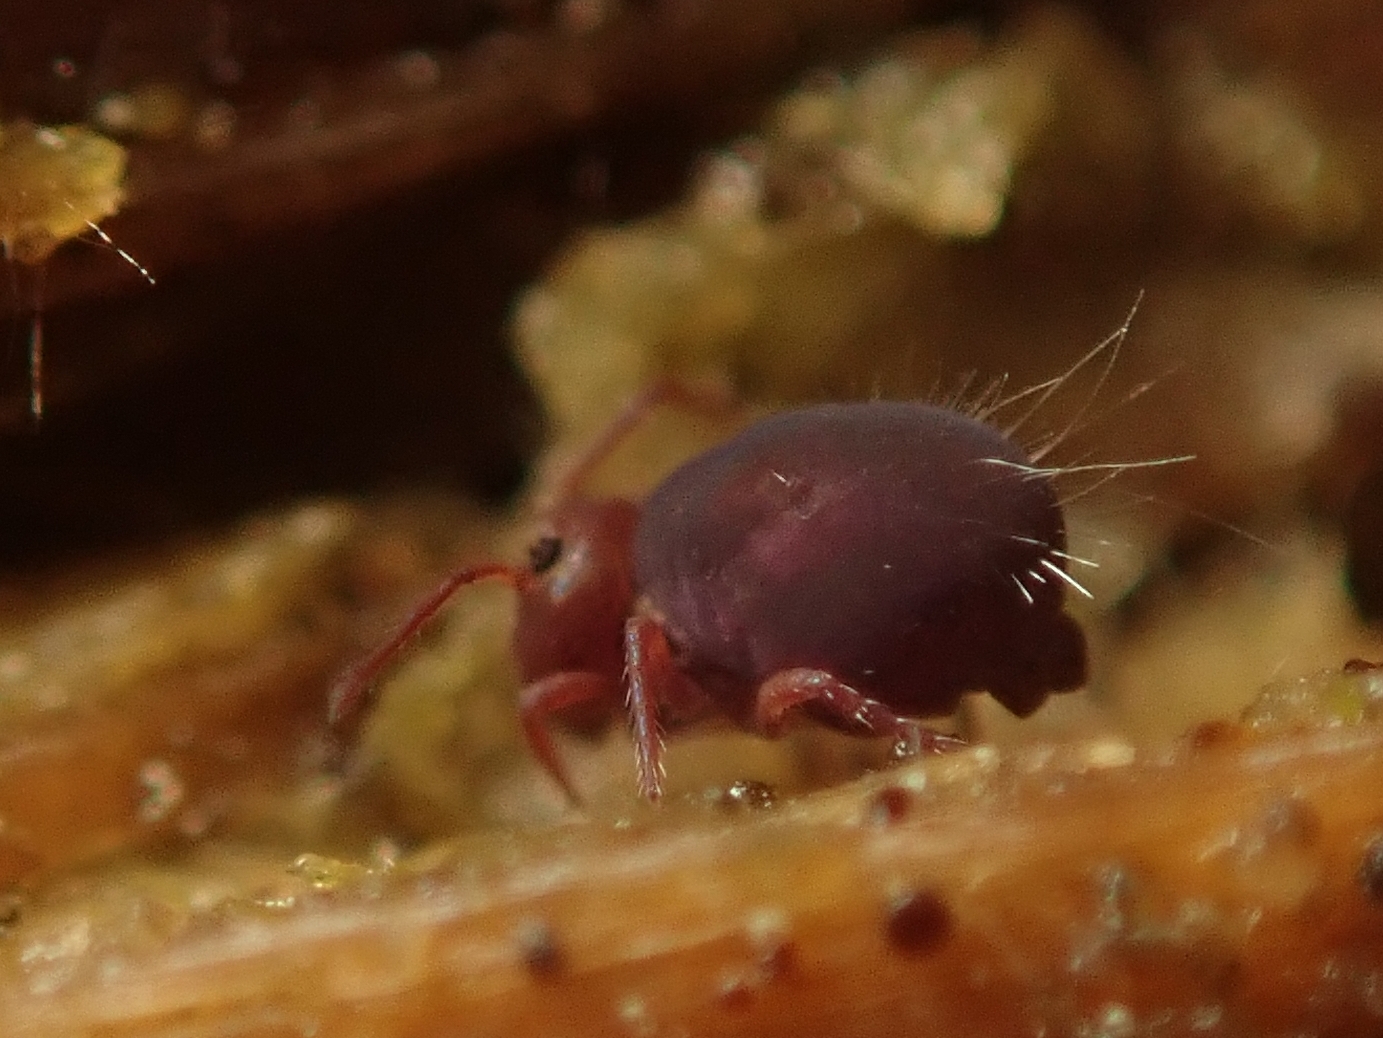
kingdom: Animalia
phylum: Arthropoda
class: Collembola
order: Symphypleona
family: Dicyrtomidae
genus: Dicyrtoma
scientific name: Dicyrtoma fusca
